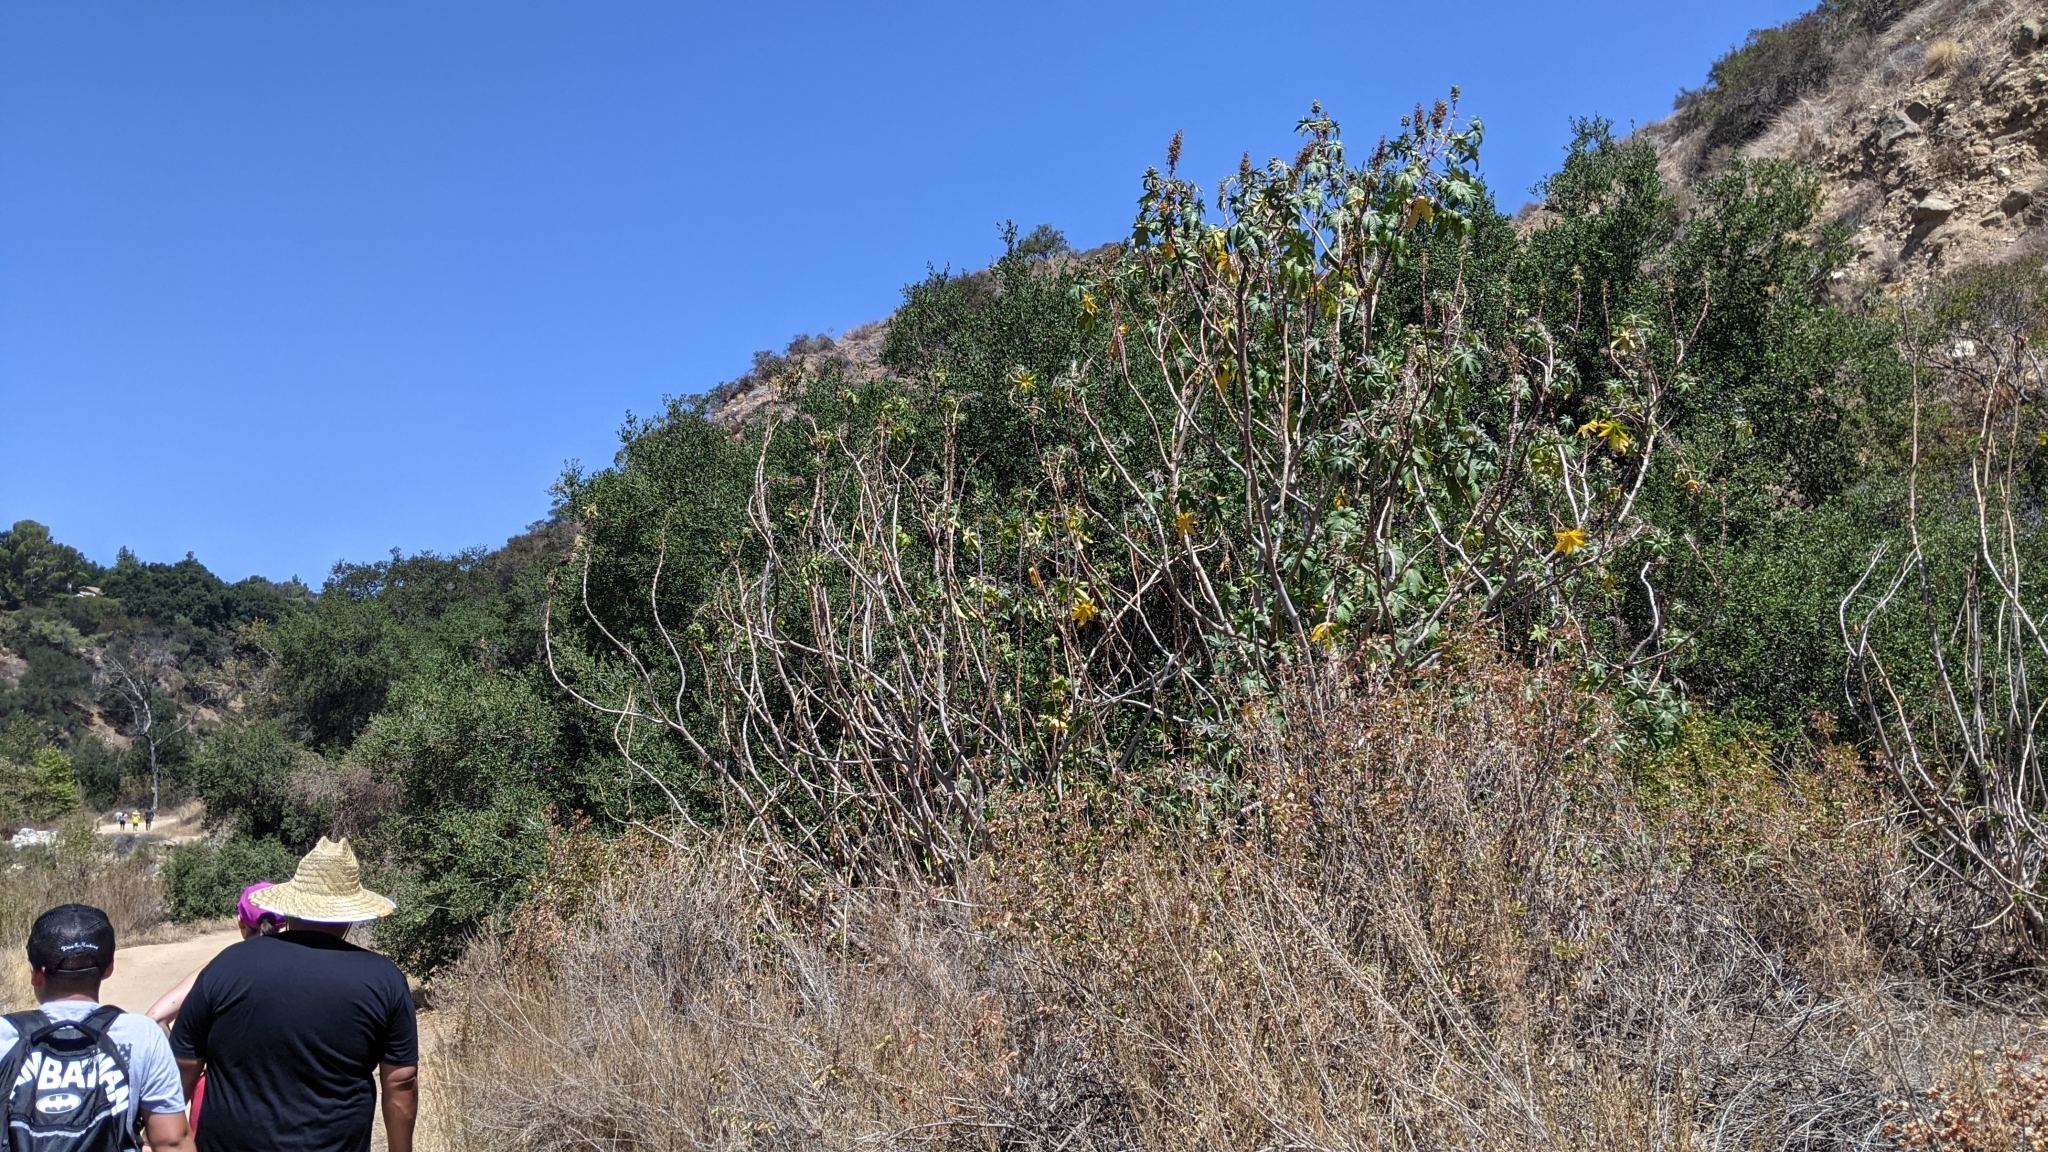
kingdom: Plantae
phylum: Tracheophyta
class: Magnoliopsida
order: Malpighiales
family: Euphorbiaceae
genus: Ricinus
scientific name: Ricinus communis
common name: Castor-oil-plant
